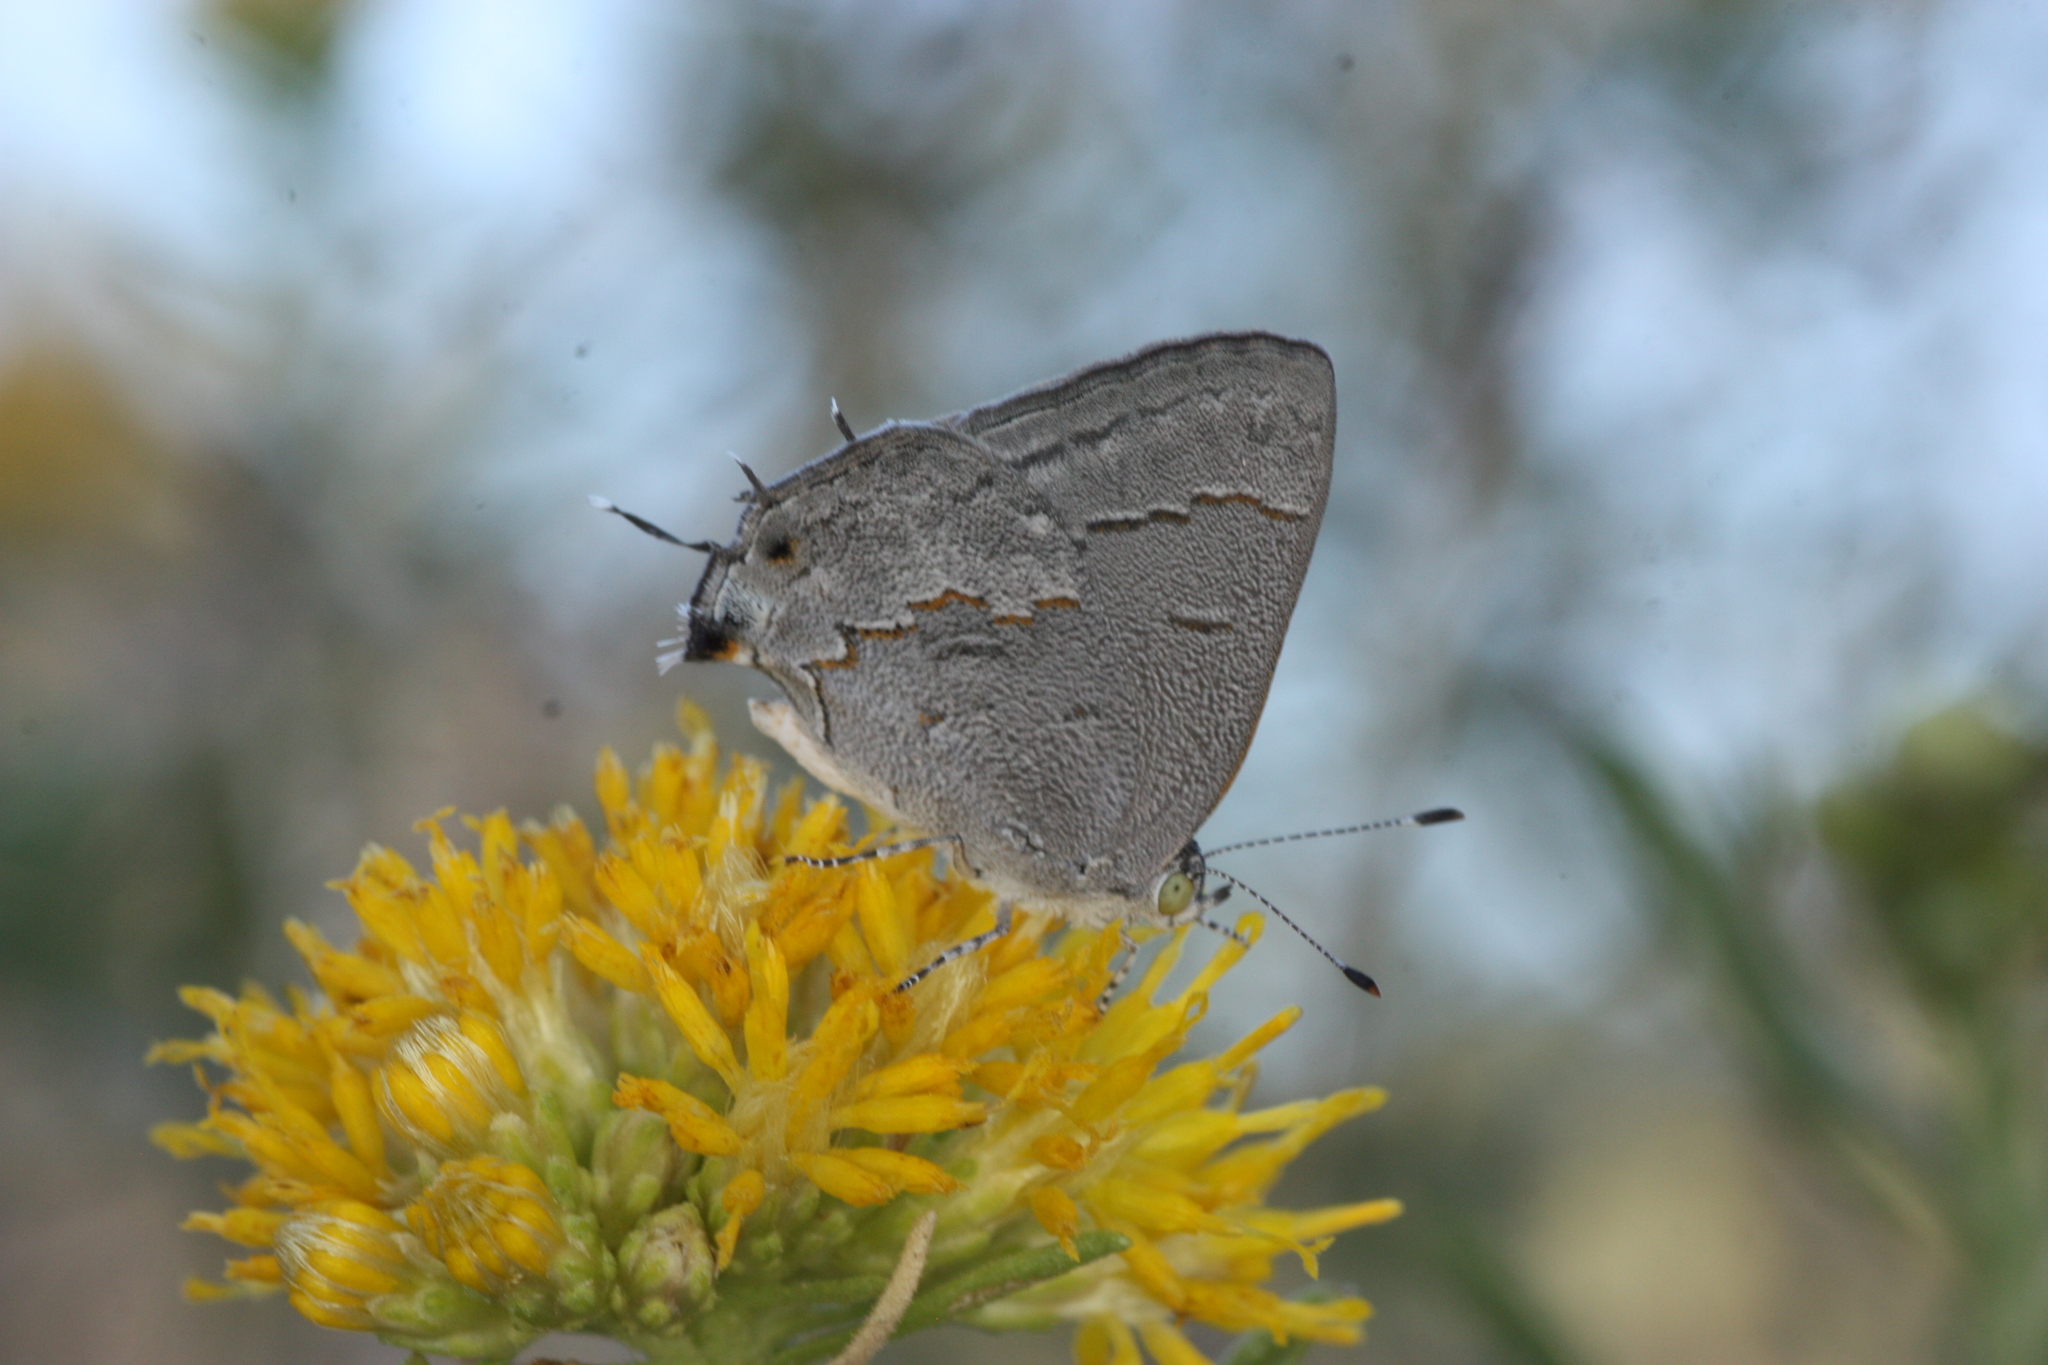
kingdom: Animalia
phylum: Arthropoda
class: Insecta
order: Lepidoptera
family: Lycaenidae
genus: Ministrymon
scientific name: Ministrymon leda
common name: Leda ministreak
